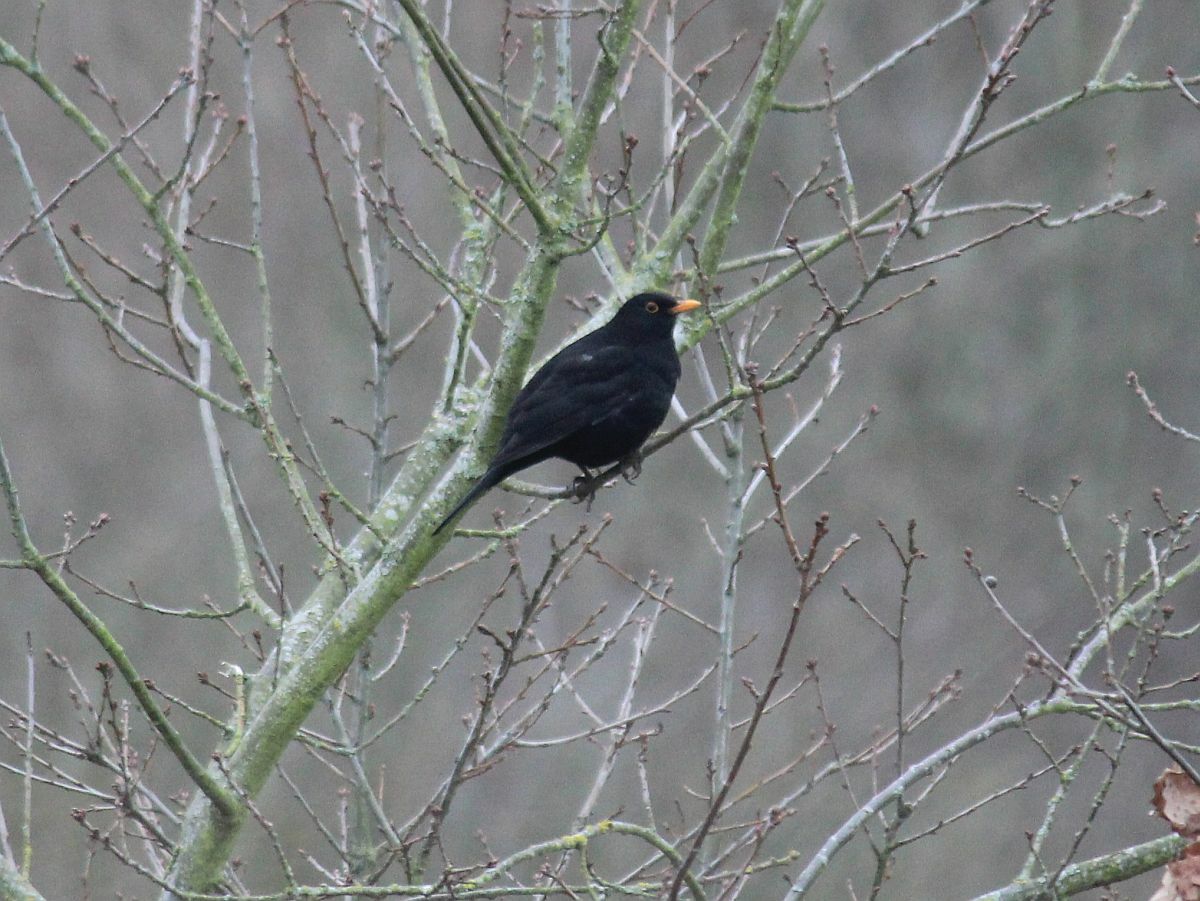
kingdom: Animalia
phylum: Chordata
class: Aves
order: Passeriformes
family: Turdidae
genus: Turdus
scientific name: Turdus merula
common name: Common blackbird
